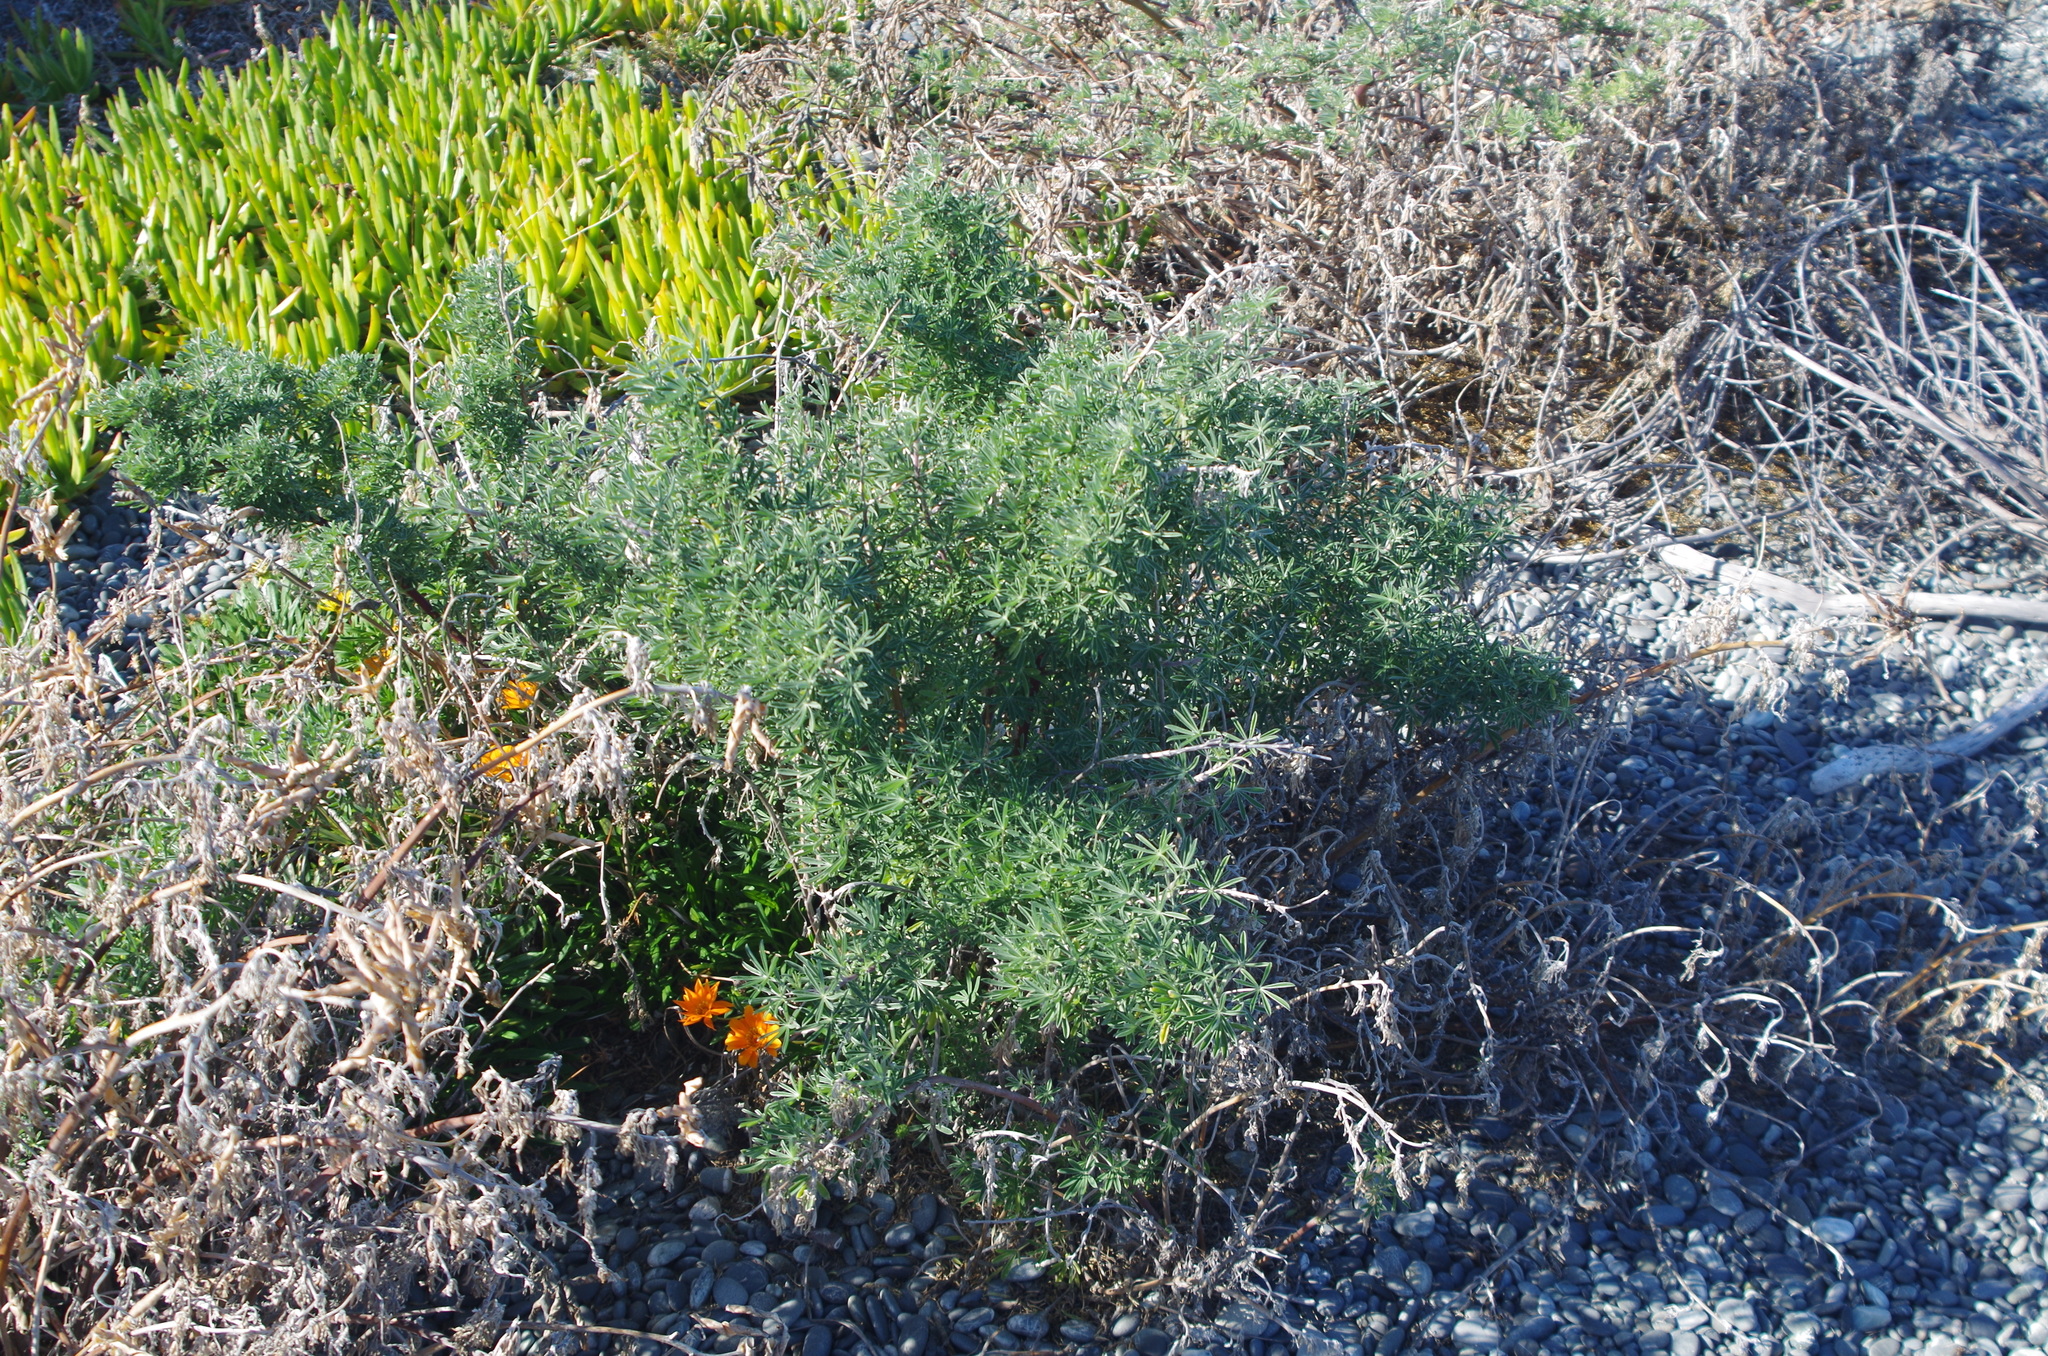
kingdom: Plantae
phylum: Tracheophyta
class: Magnoliopsida
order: Fabales
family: Fabaceae
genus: Lupinus
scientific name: Lupinus arboreus
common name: Yellow bush lupine
